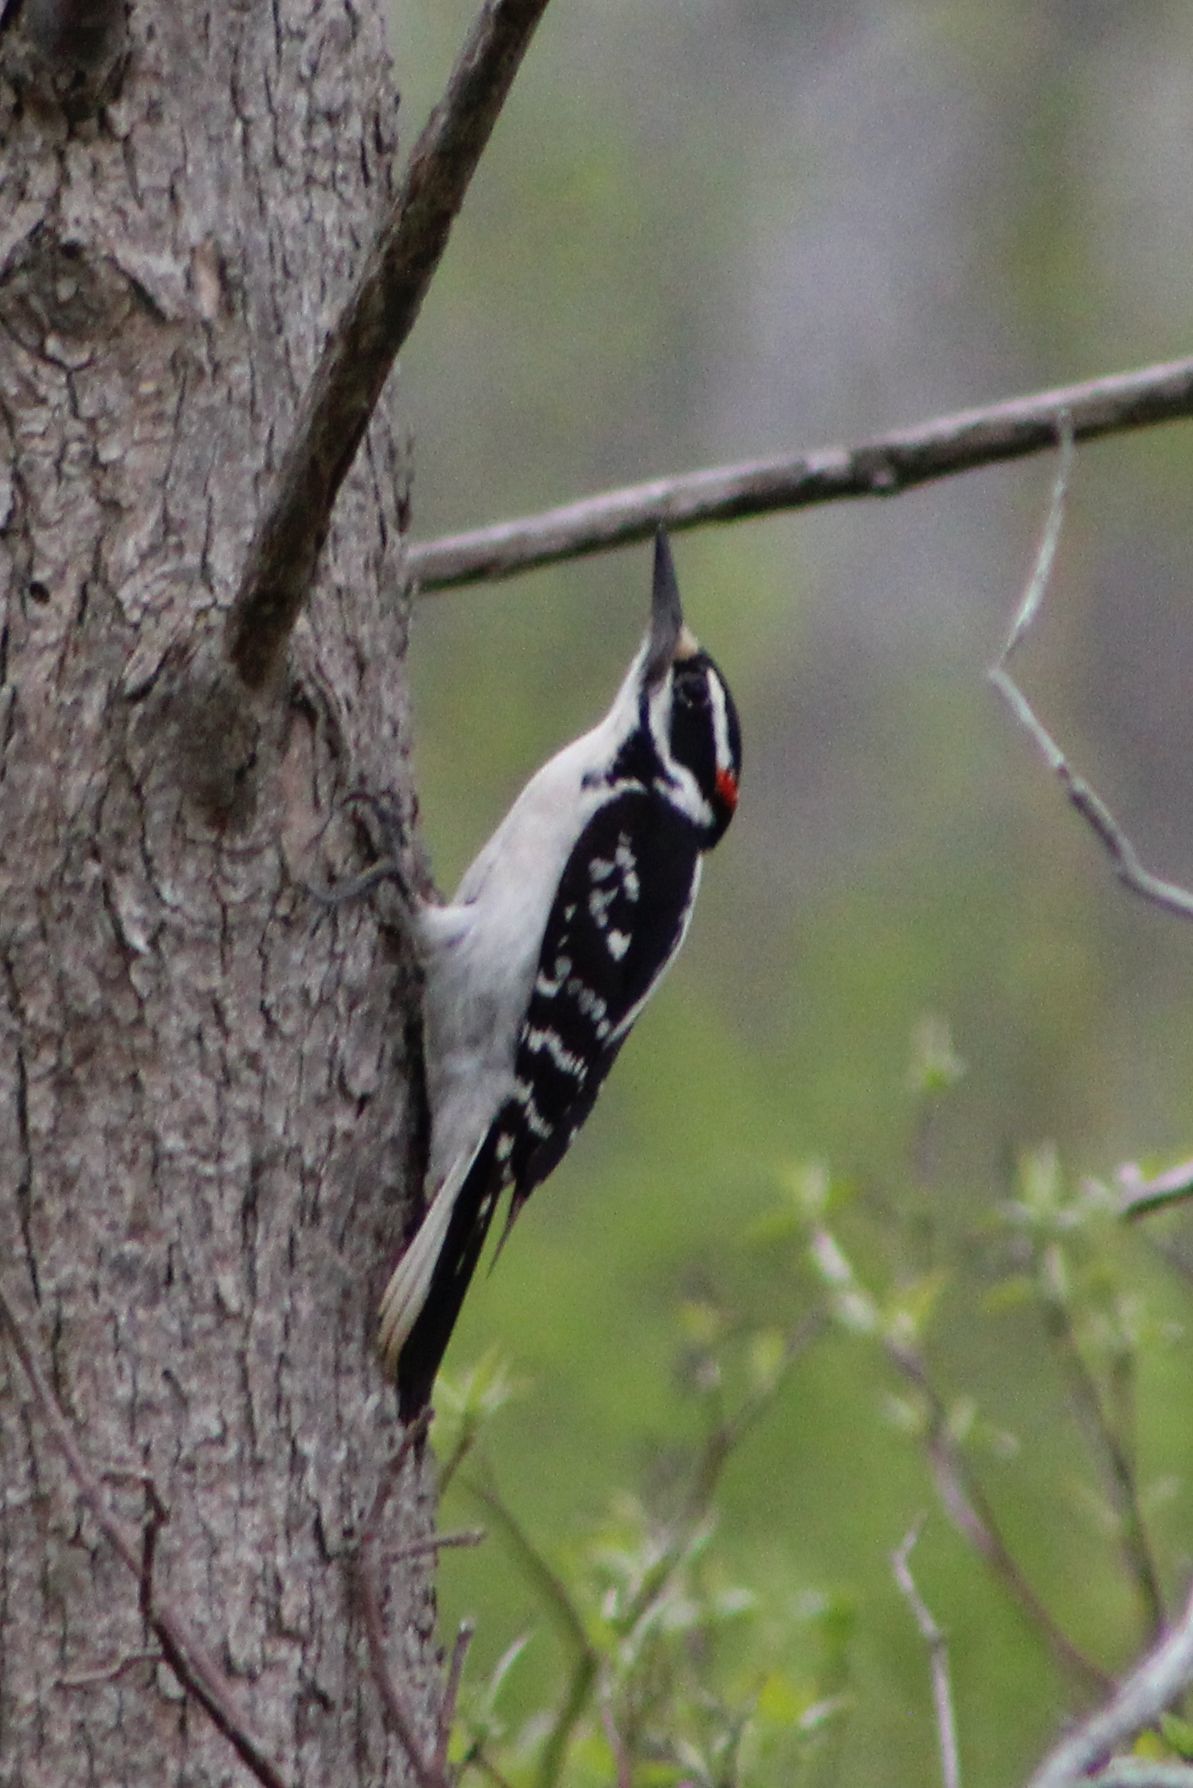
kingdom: Animalia
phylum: Chordata
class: Aves
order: Piciformes
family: Picidae
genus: Leuconotopicus
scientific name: Leuconotopicus villosus
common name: Hairy woodpecker
